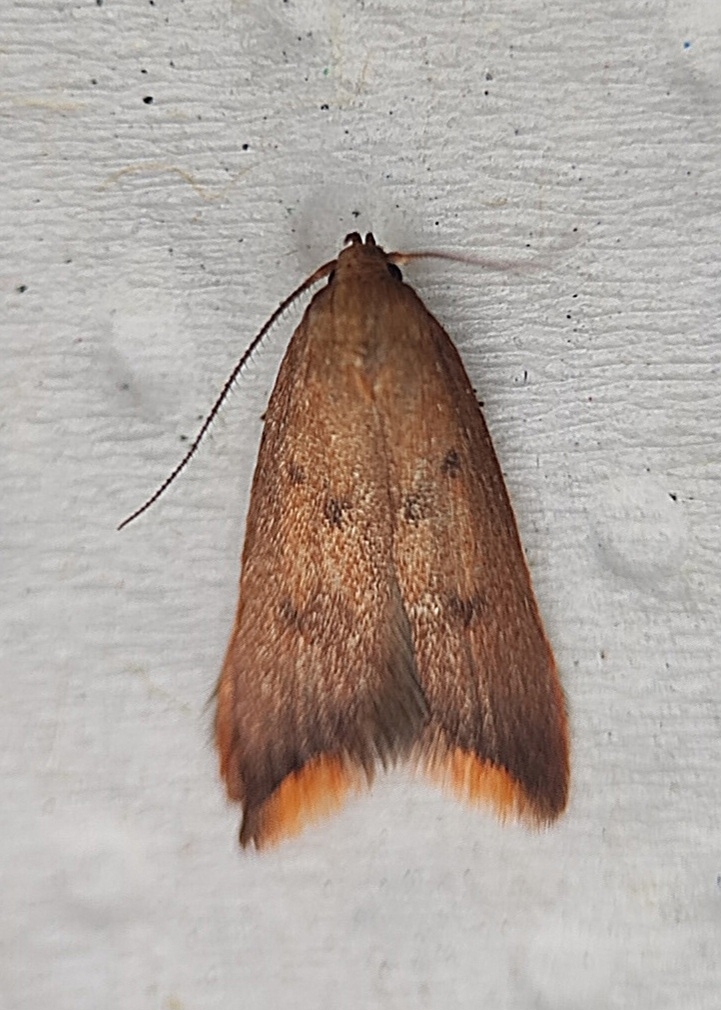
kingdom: Animalia
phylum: Arthropoda
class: Insecta
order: Lepidoptera
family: Oecophoridae
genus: Tachystola
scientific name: Tachystola acroxantha
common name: Ruddy streak
